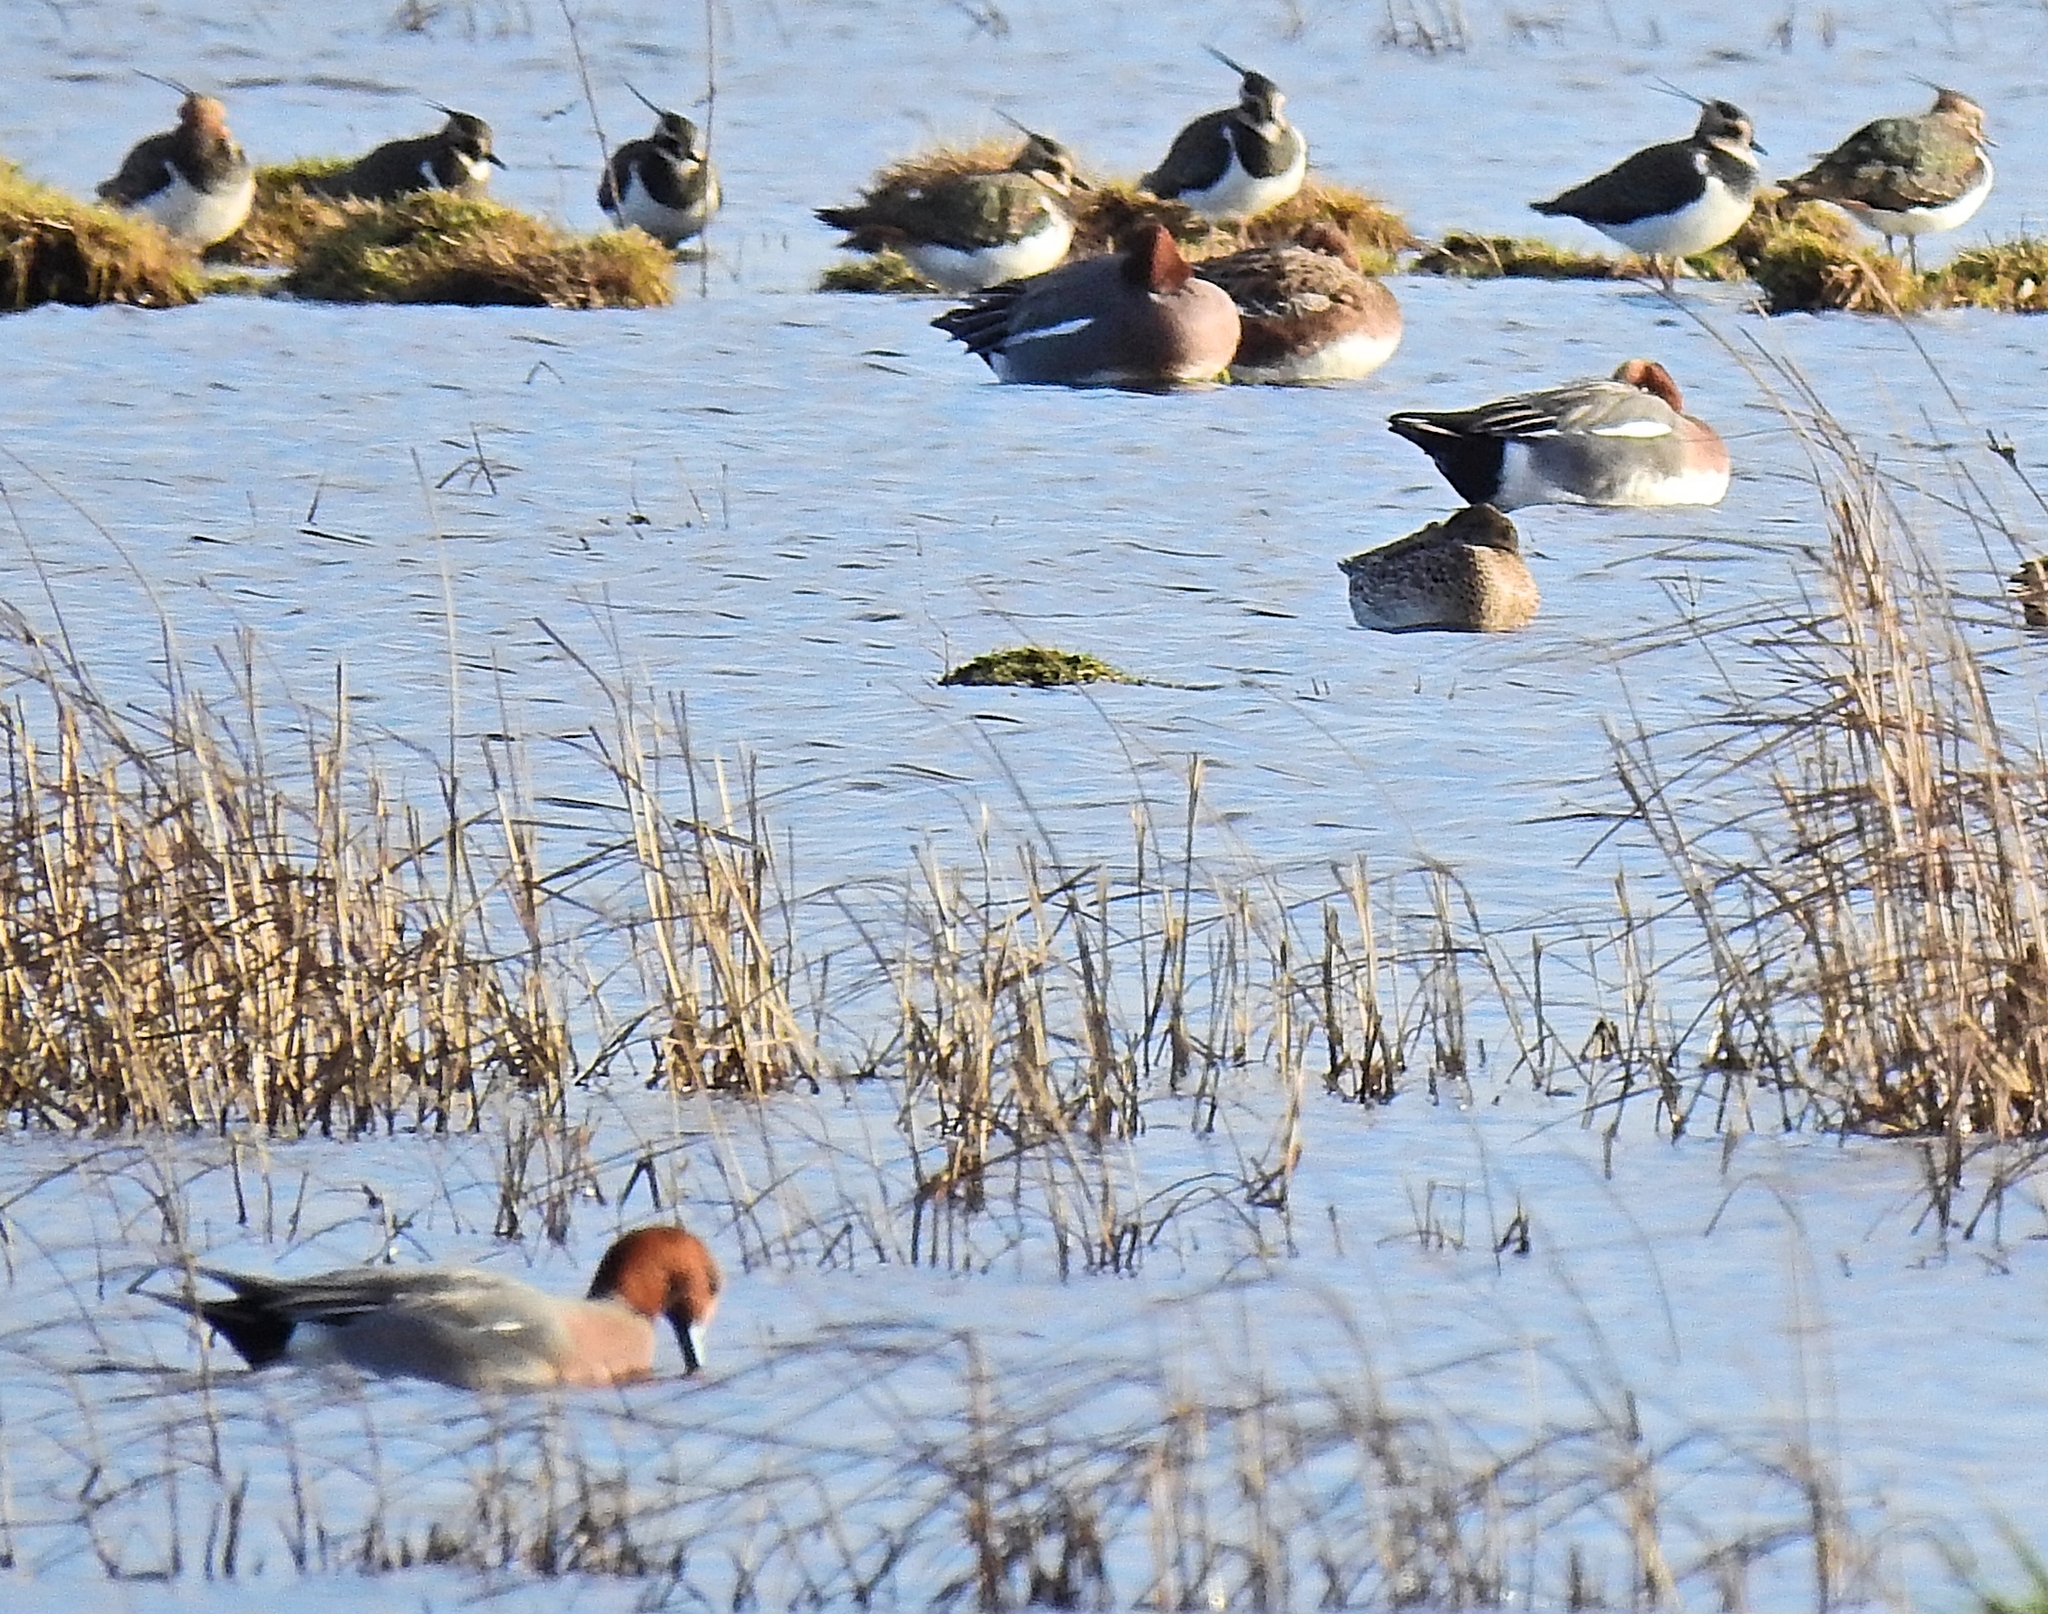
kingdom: Animalia
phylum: Chordata
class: Aves
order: Anseriformes
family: Anatidae
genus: Mareca
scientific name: Mareca penelope
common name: Eurasian wigeon
